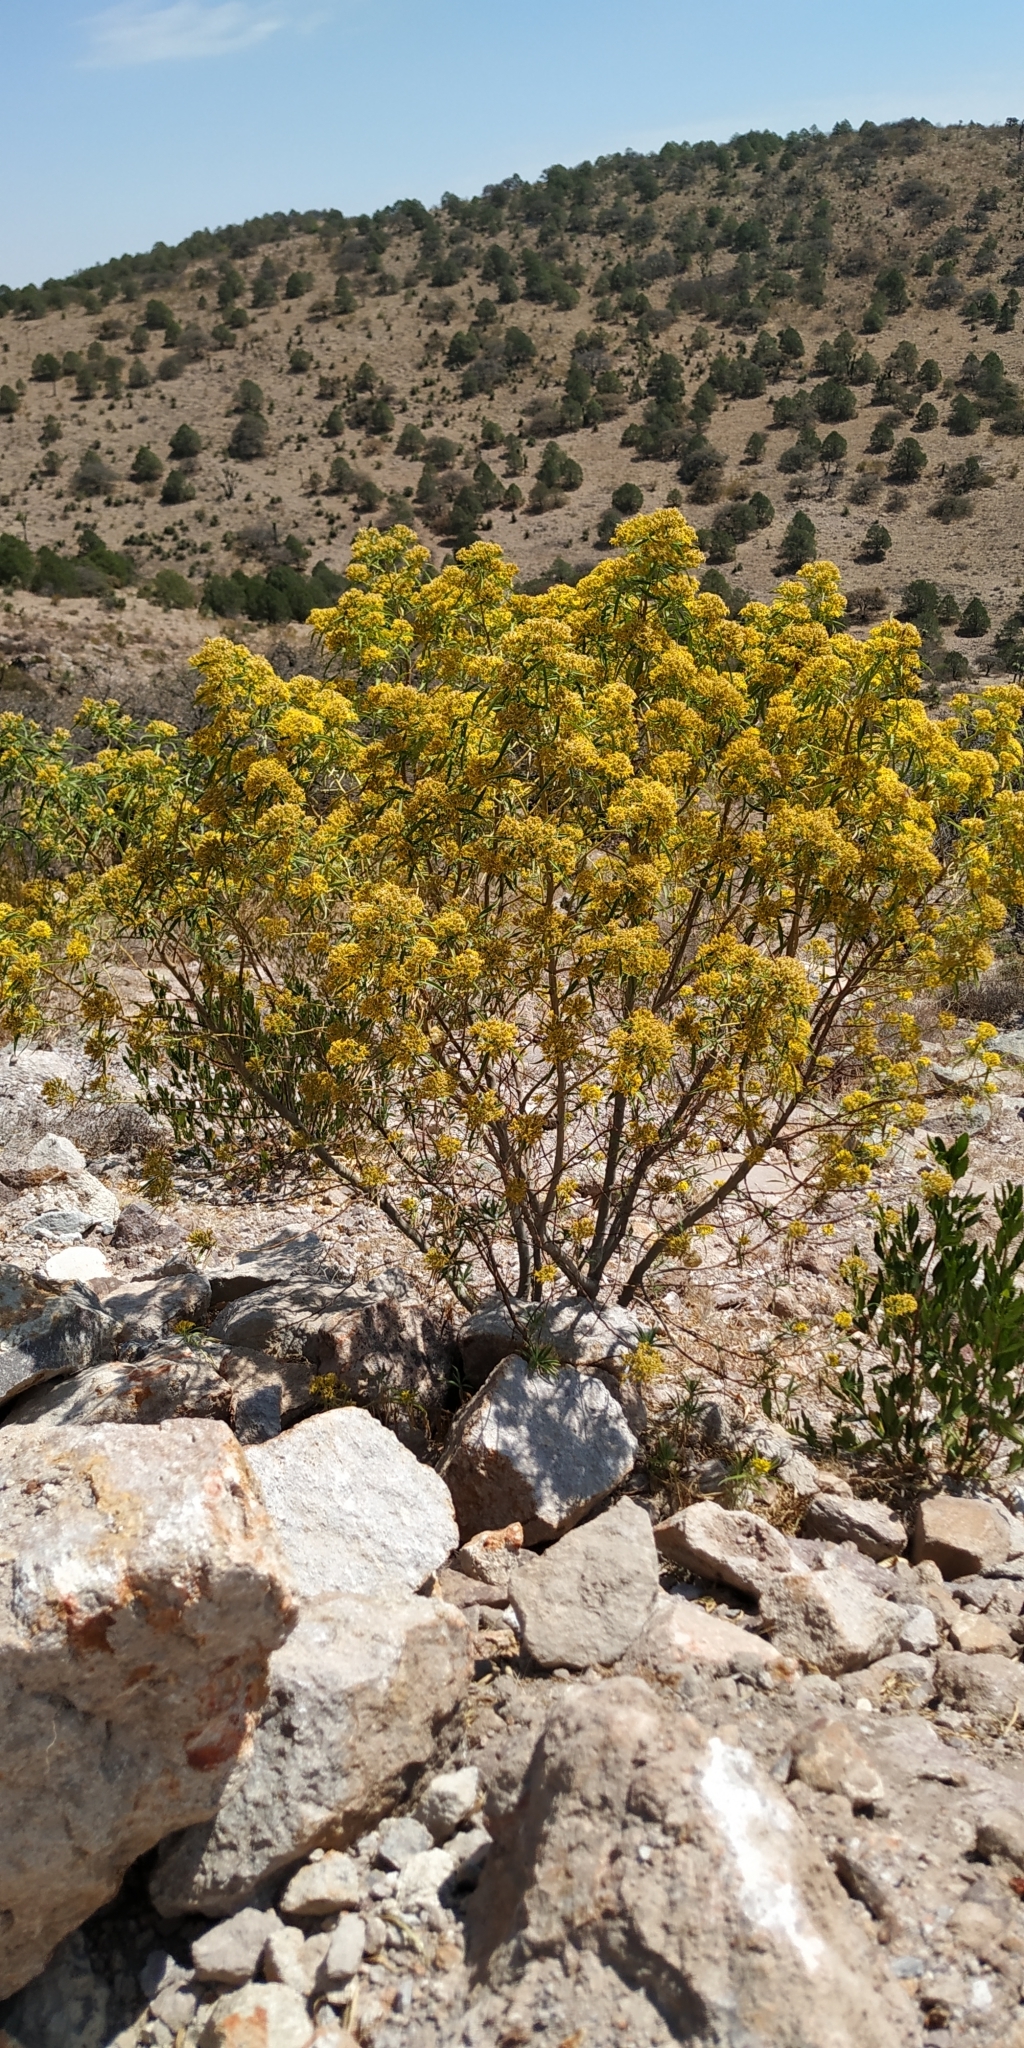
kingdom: Plantae
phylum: Tracheophyta
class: Magnoliopsida
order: Asterales
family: Asteraceae
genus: Barkleyanthus
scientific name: Barkleyanthus salicifolius
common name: Willow ragwort
